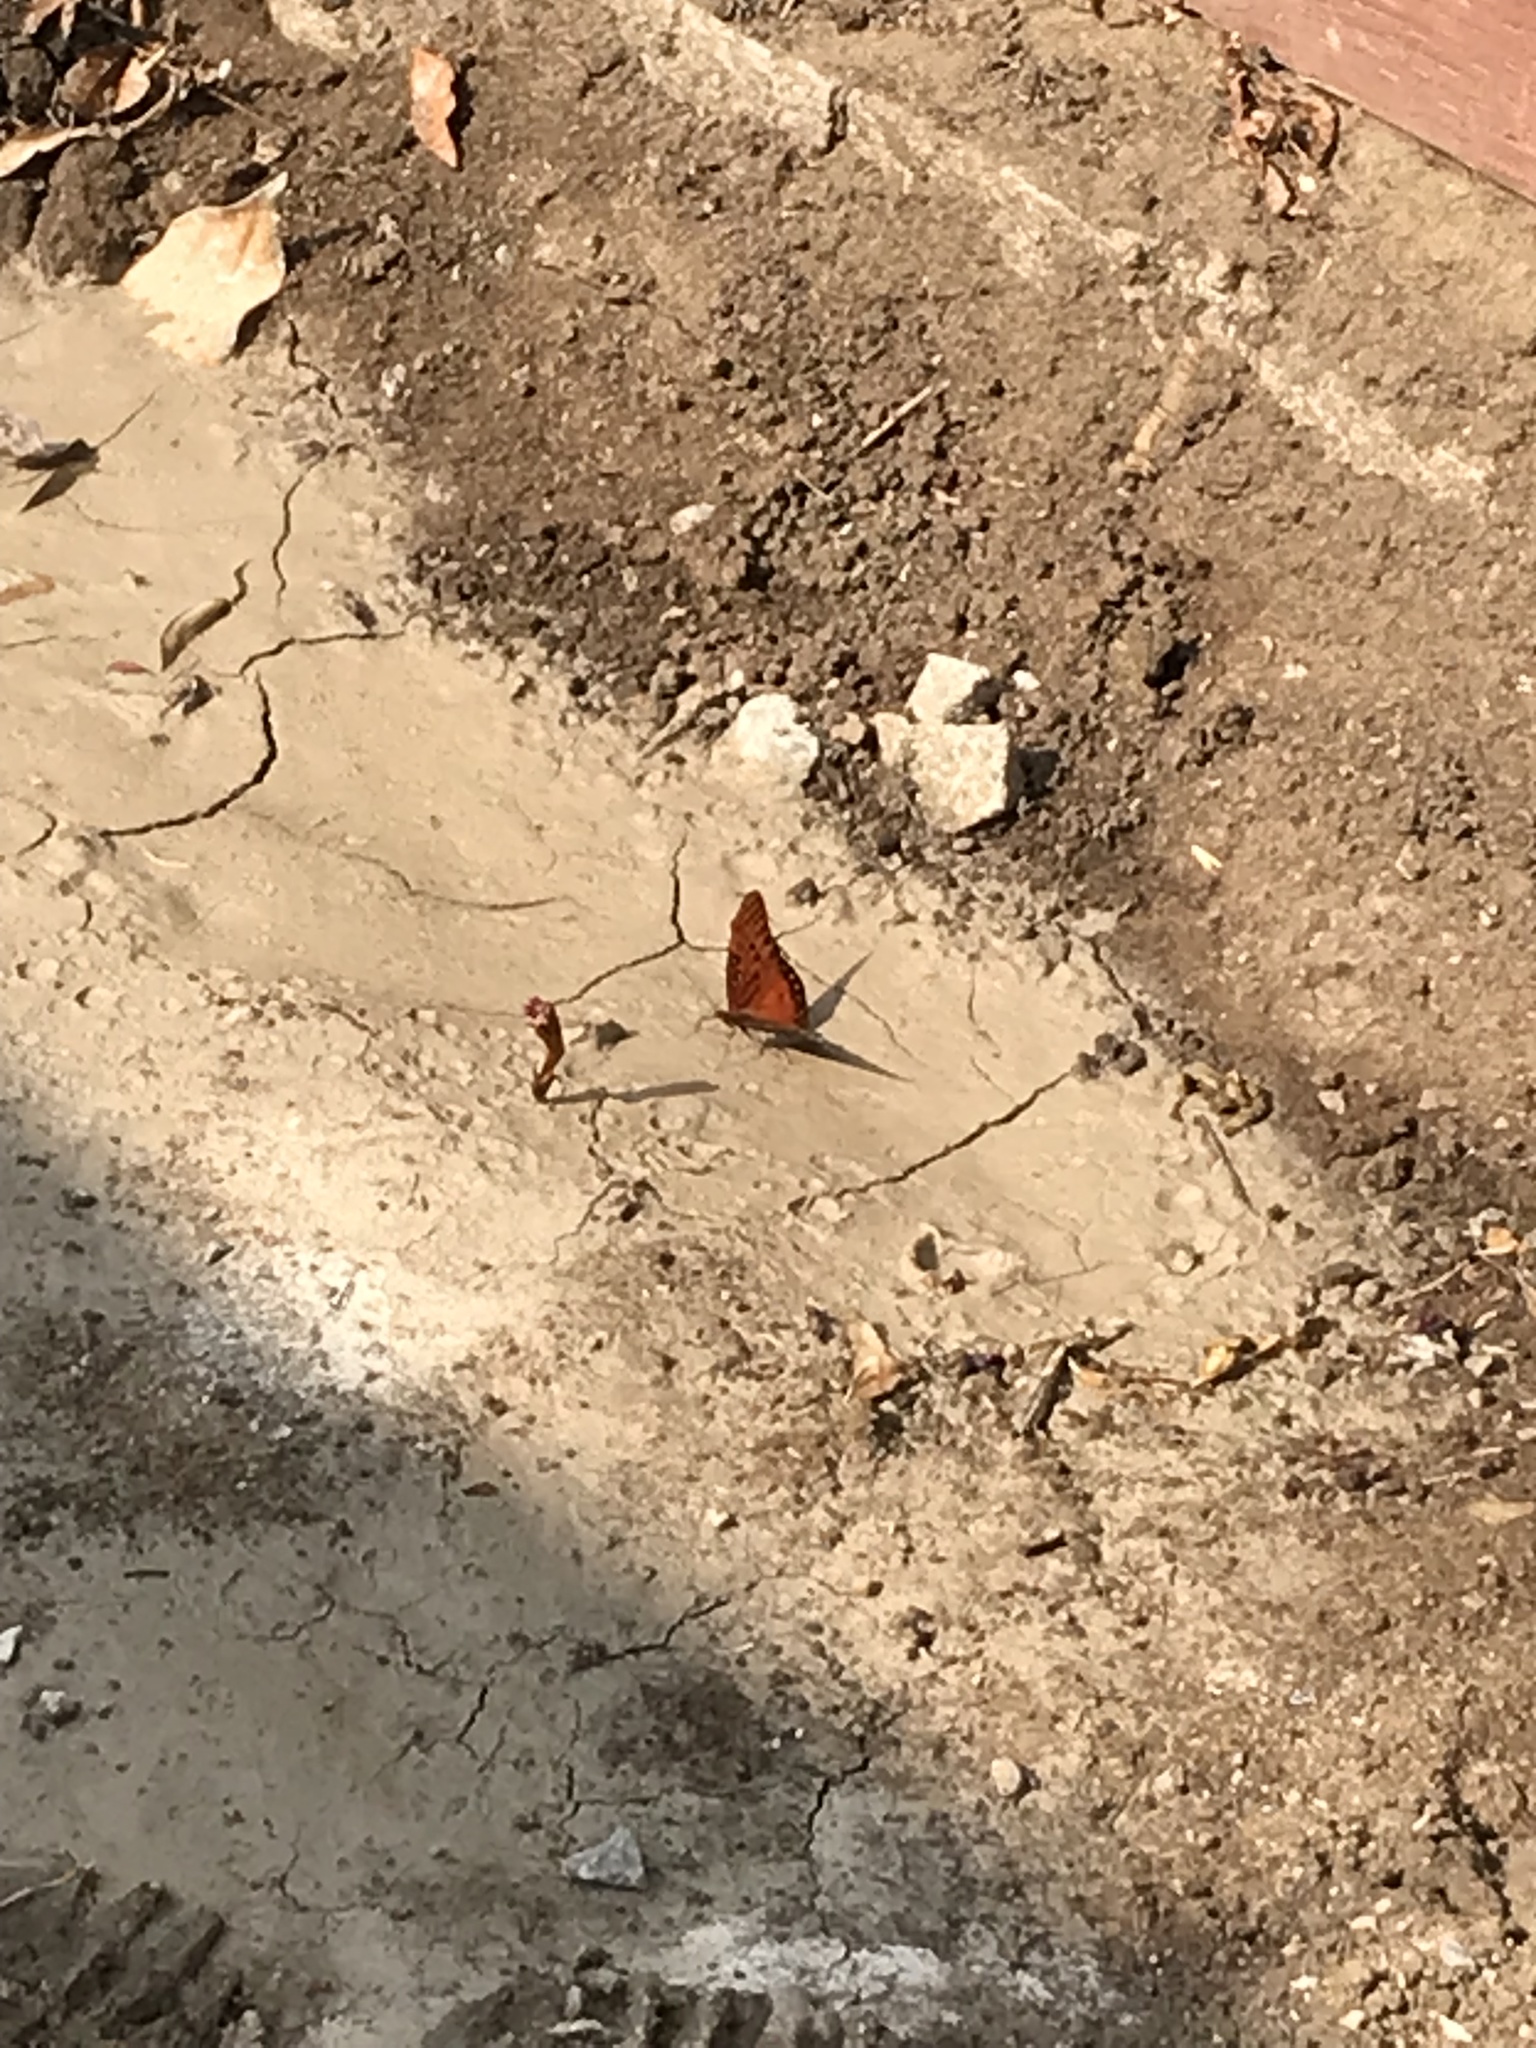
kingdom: Animalia
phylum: Arthropoda
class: Insecta
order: Lepidoptera
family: Nymphalidae
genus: Dione
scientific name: Dione vanillae
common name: Gulf fritillary
